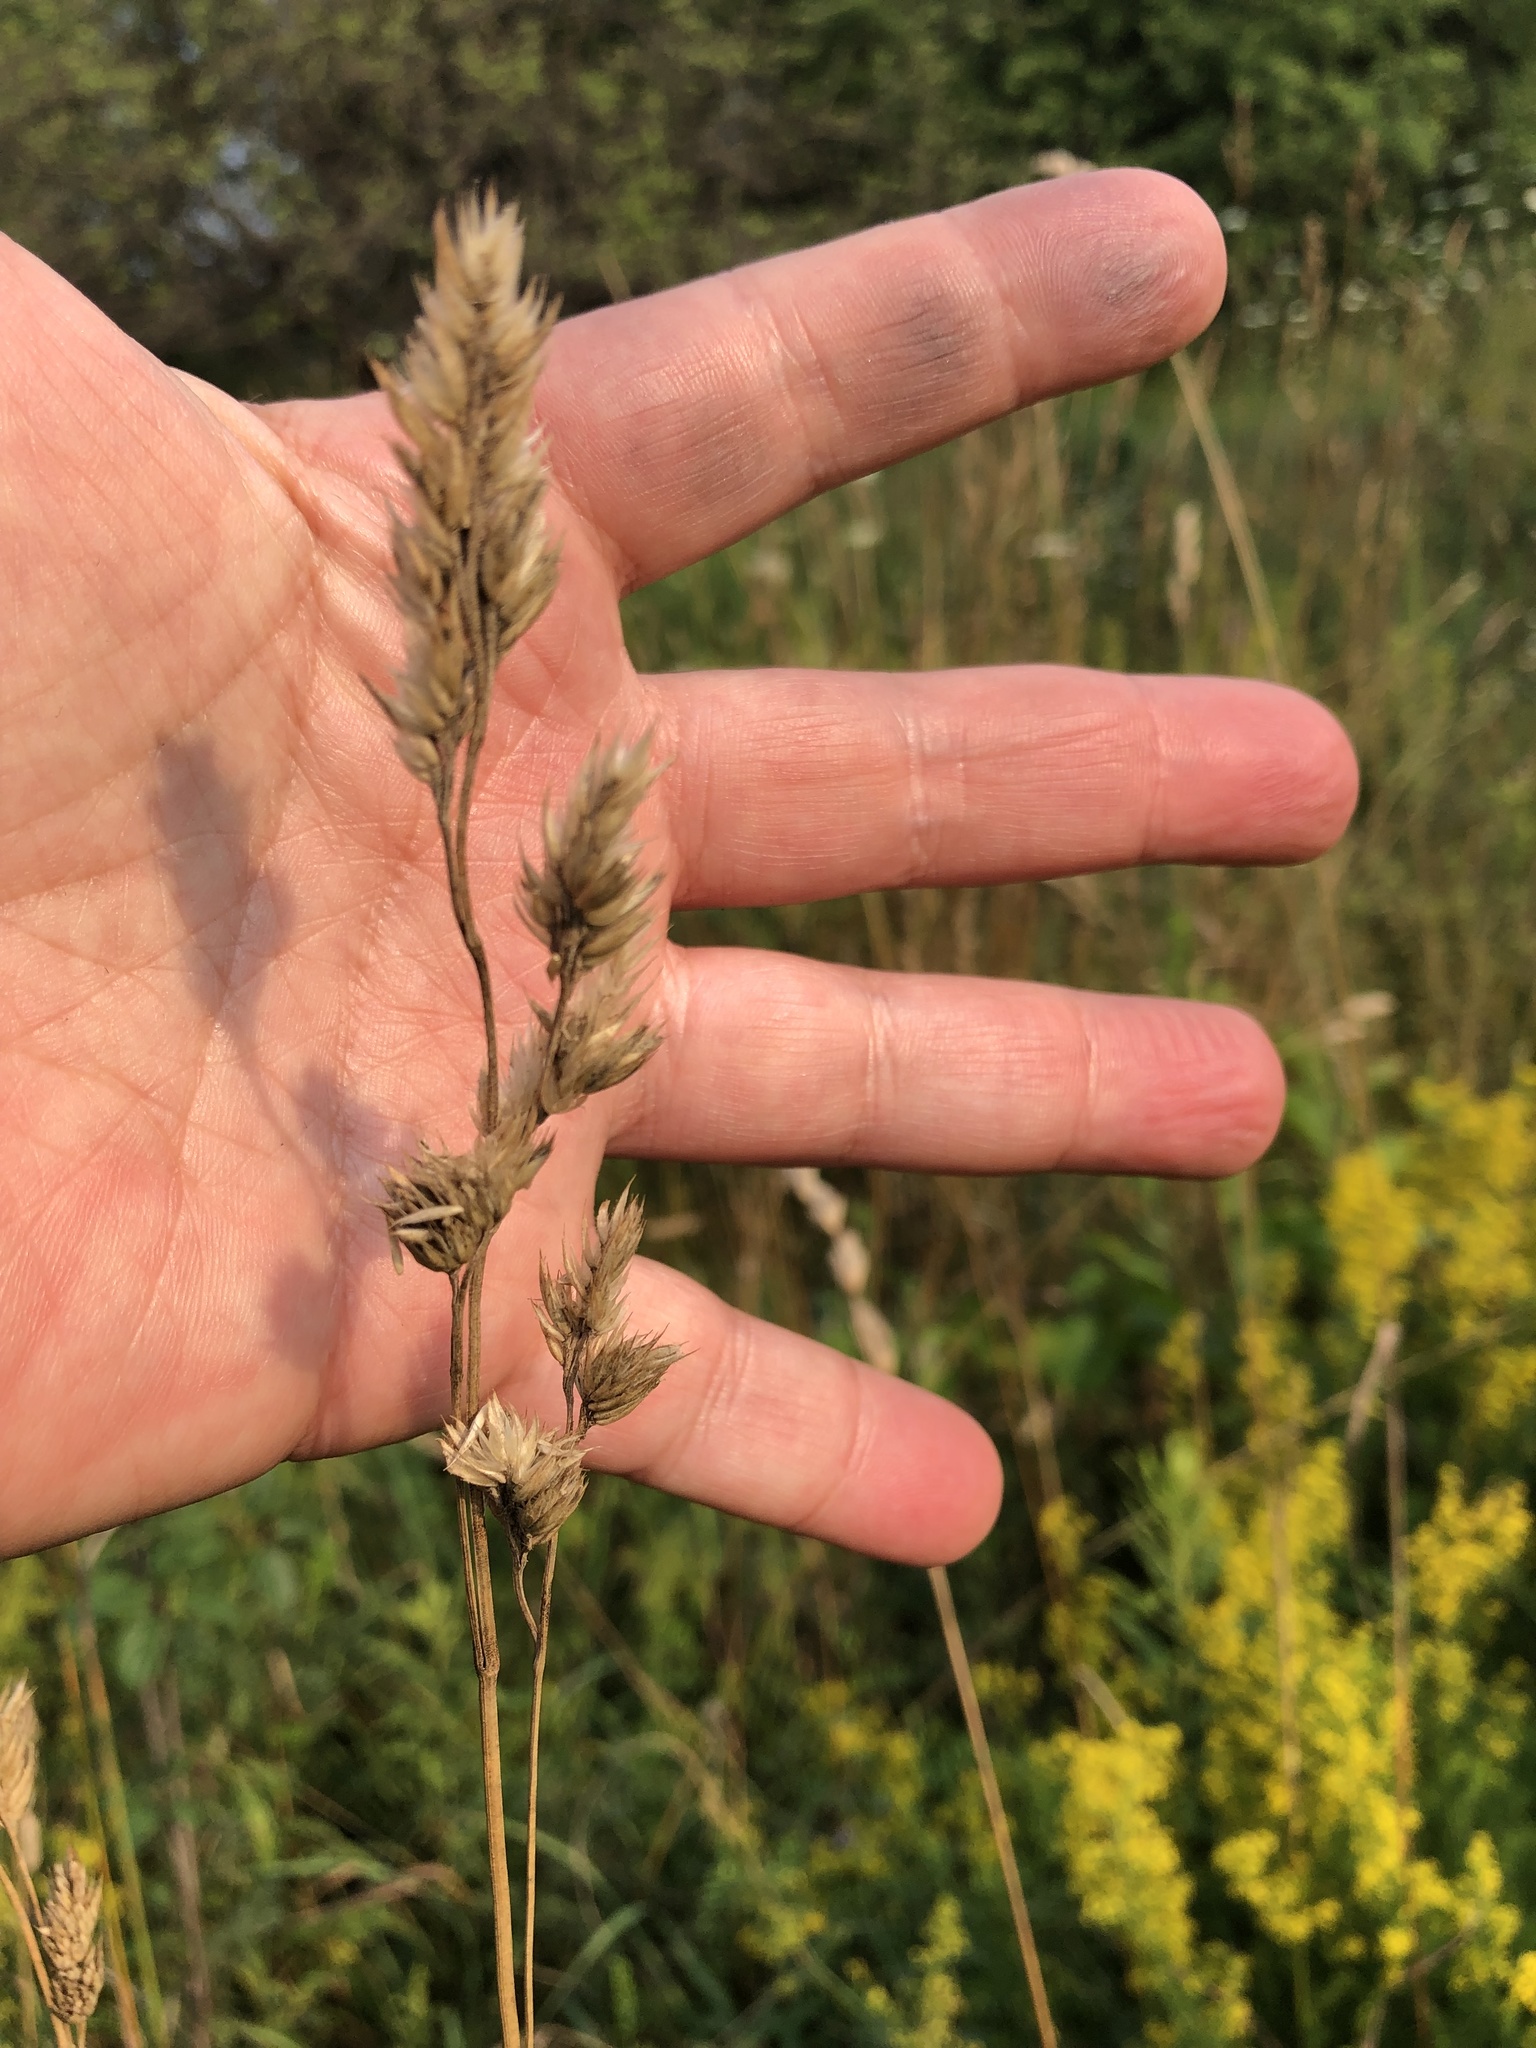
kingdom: Plantae
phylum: Tracheophyta
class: Liliopsida
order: Poales
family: Poaceae
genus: Dactylis
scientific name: Dactylis glomerata
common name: Orchardgrass
